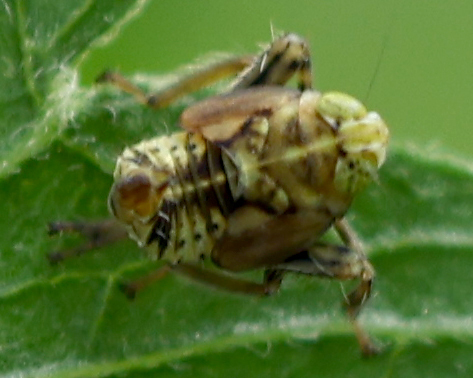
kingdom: Animalia
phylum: Arthropoda
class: Insecta
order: Hemiptera
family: Cicadellidae
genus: Jikradia
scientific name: Jikradia olitoria
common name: Coppery leafhopper
